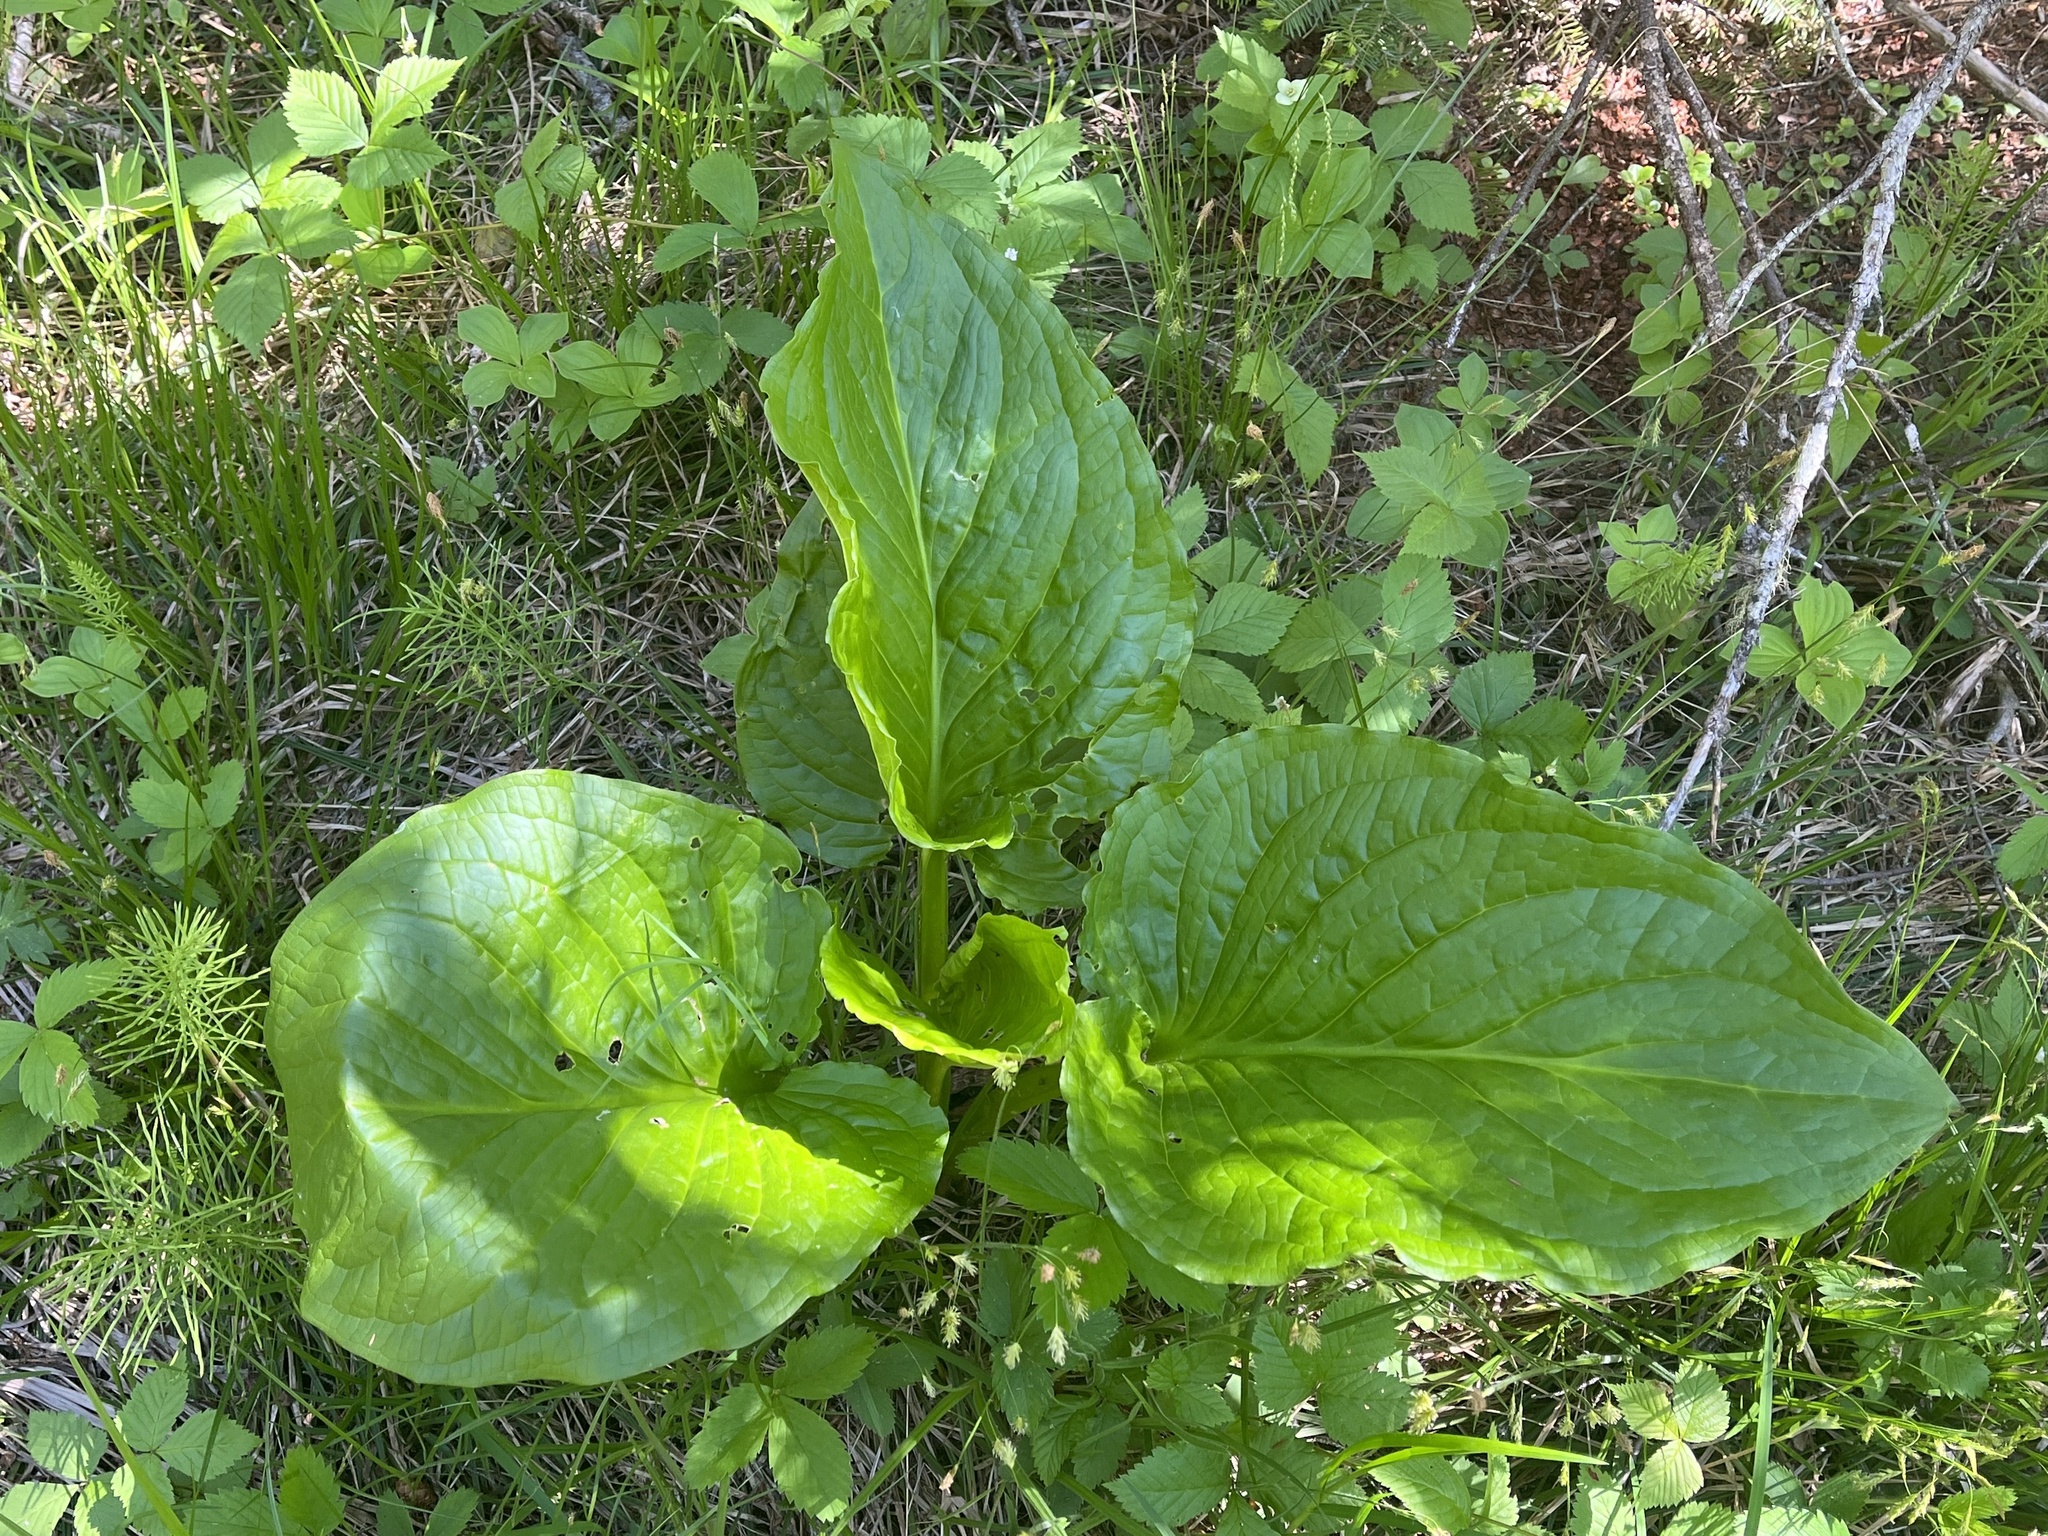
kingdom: Plantae
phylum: Tracheophyta
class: Liliopsida
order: Alismatales
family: Araceae
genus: Symplocarpus
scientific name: Symplocarpus foetidus
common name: Eastern skunk cabbage
